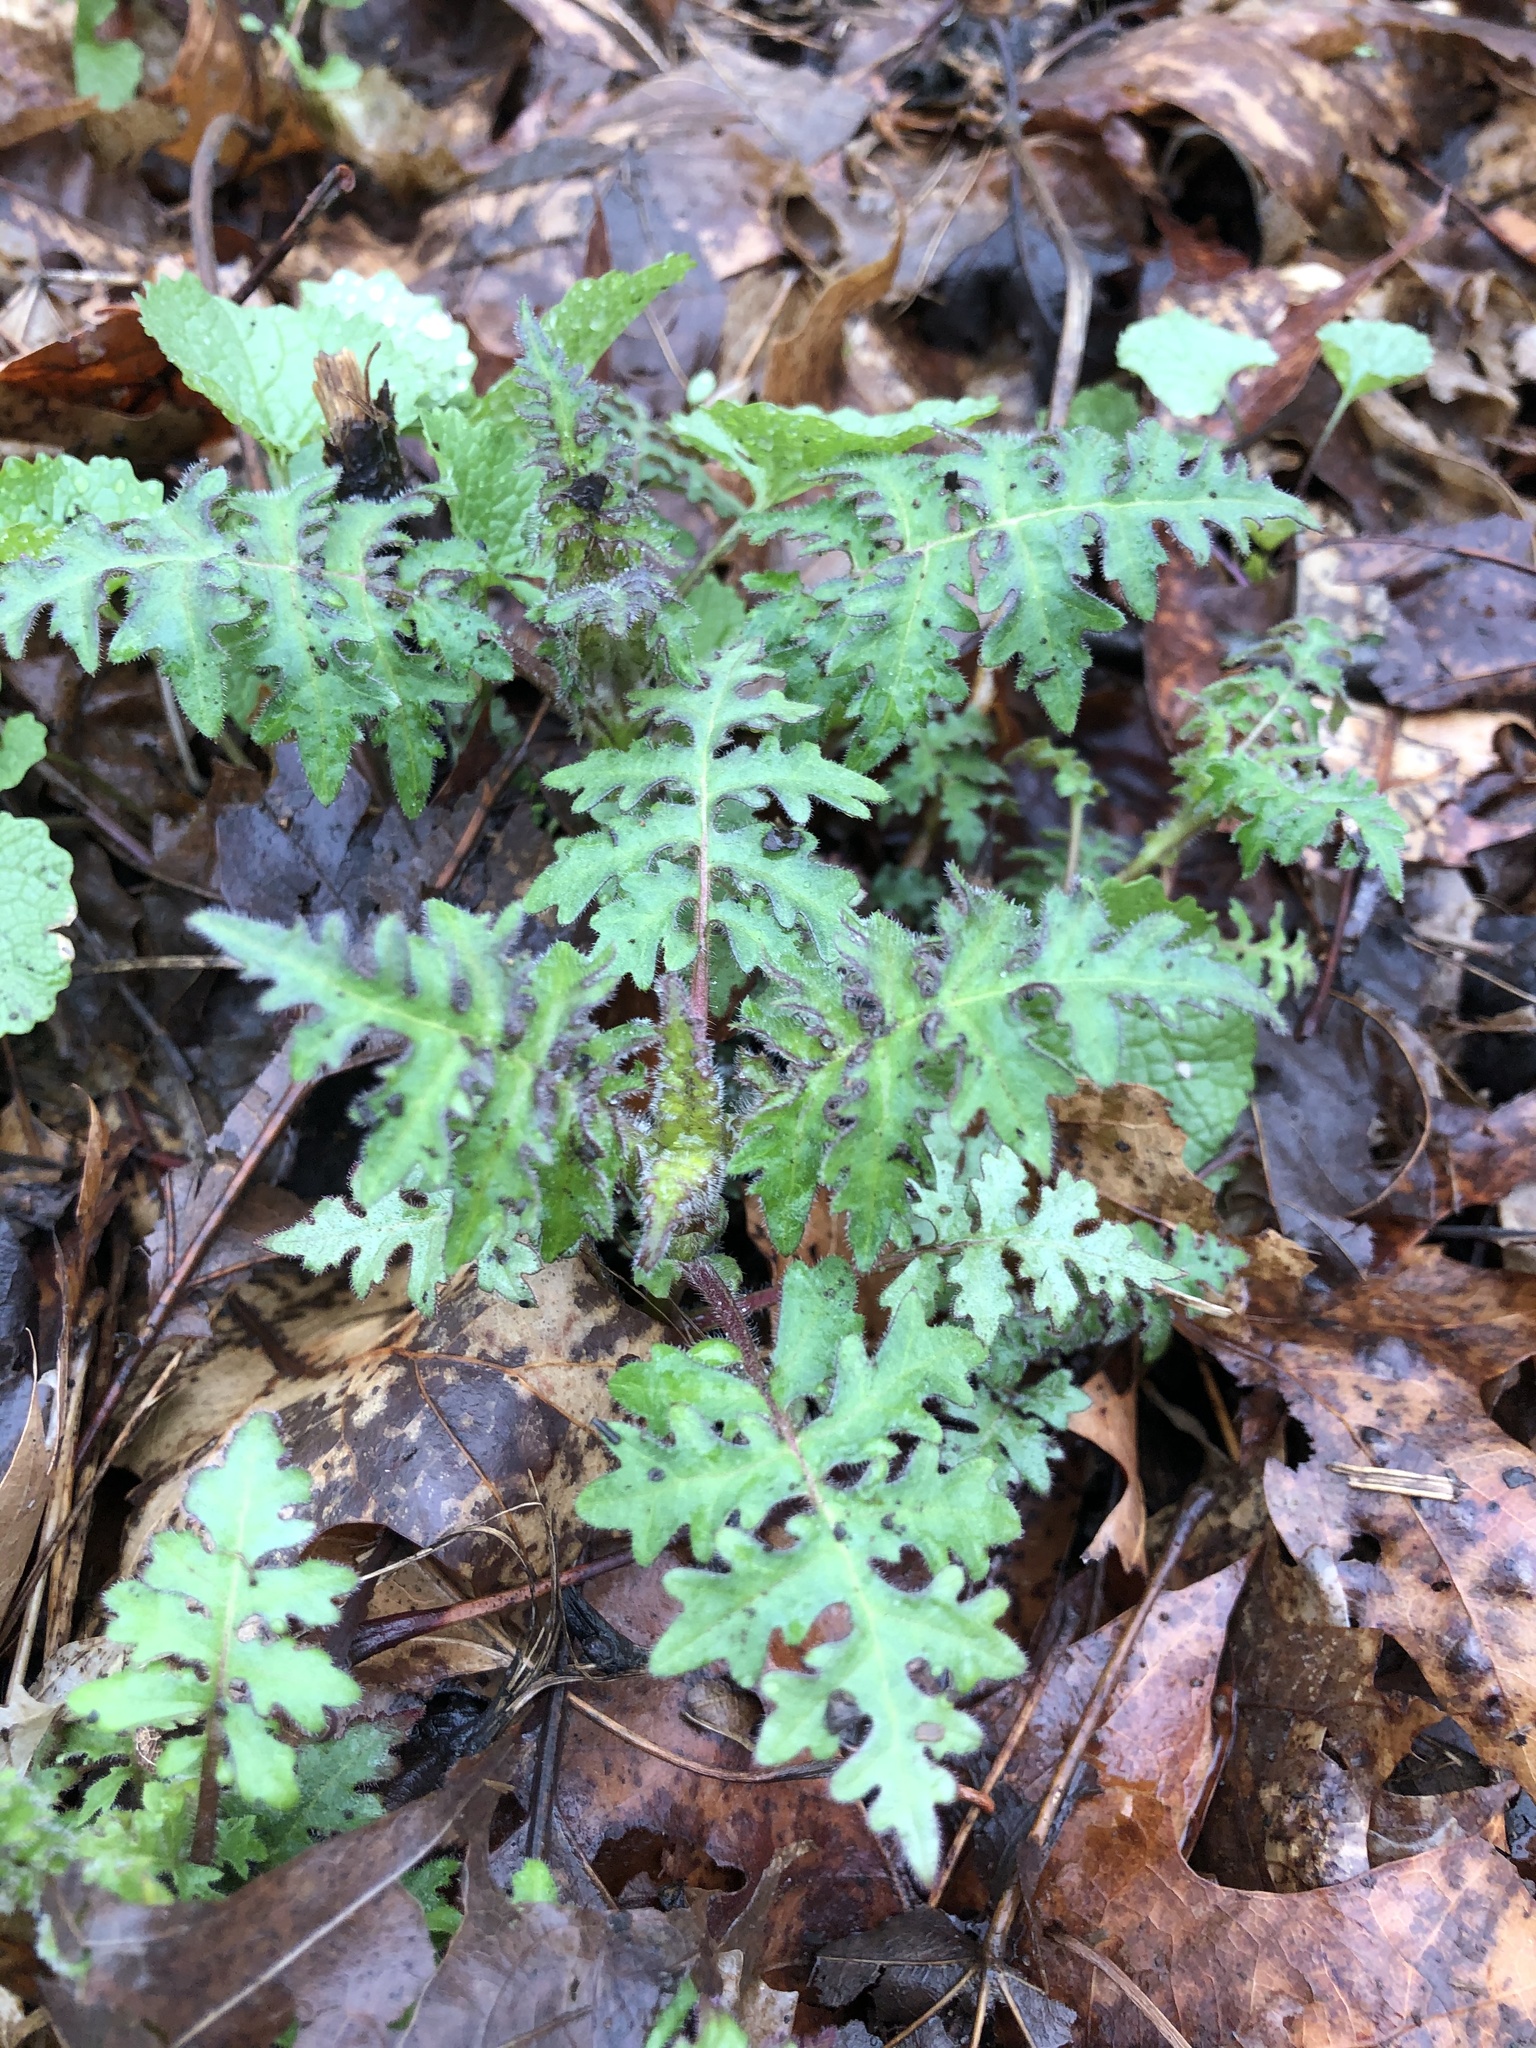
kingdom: Plantae
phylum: Tracheophyta
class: Magnoliopsida
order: Asterales
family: Asteraceae
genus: Polymnia
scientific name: Polymnia canadensis
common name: Pale-flowered leafcup
